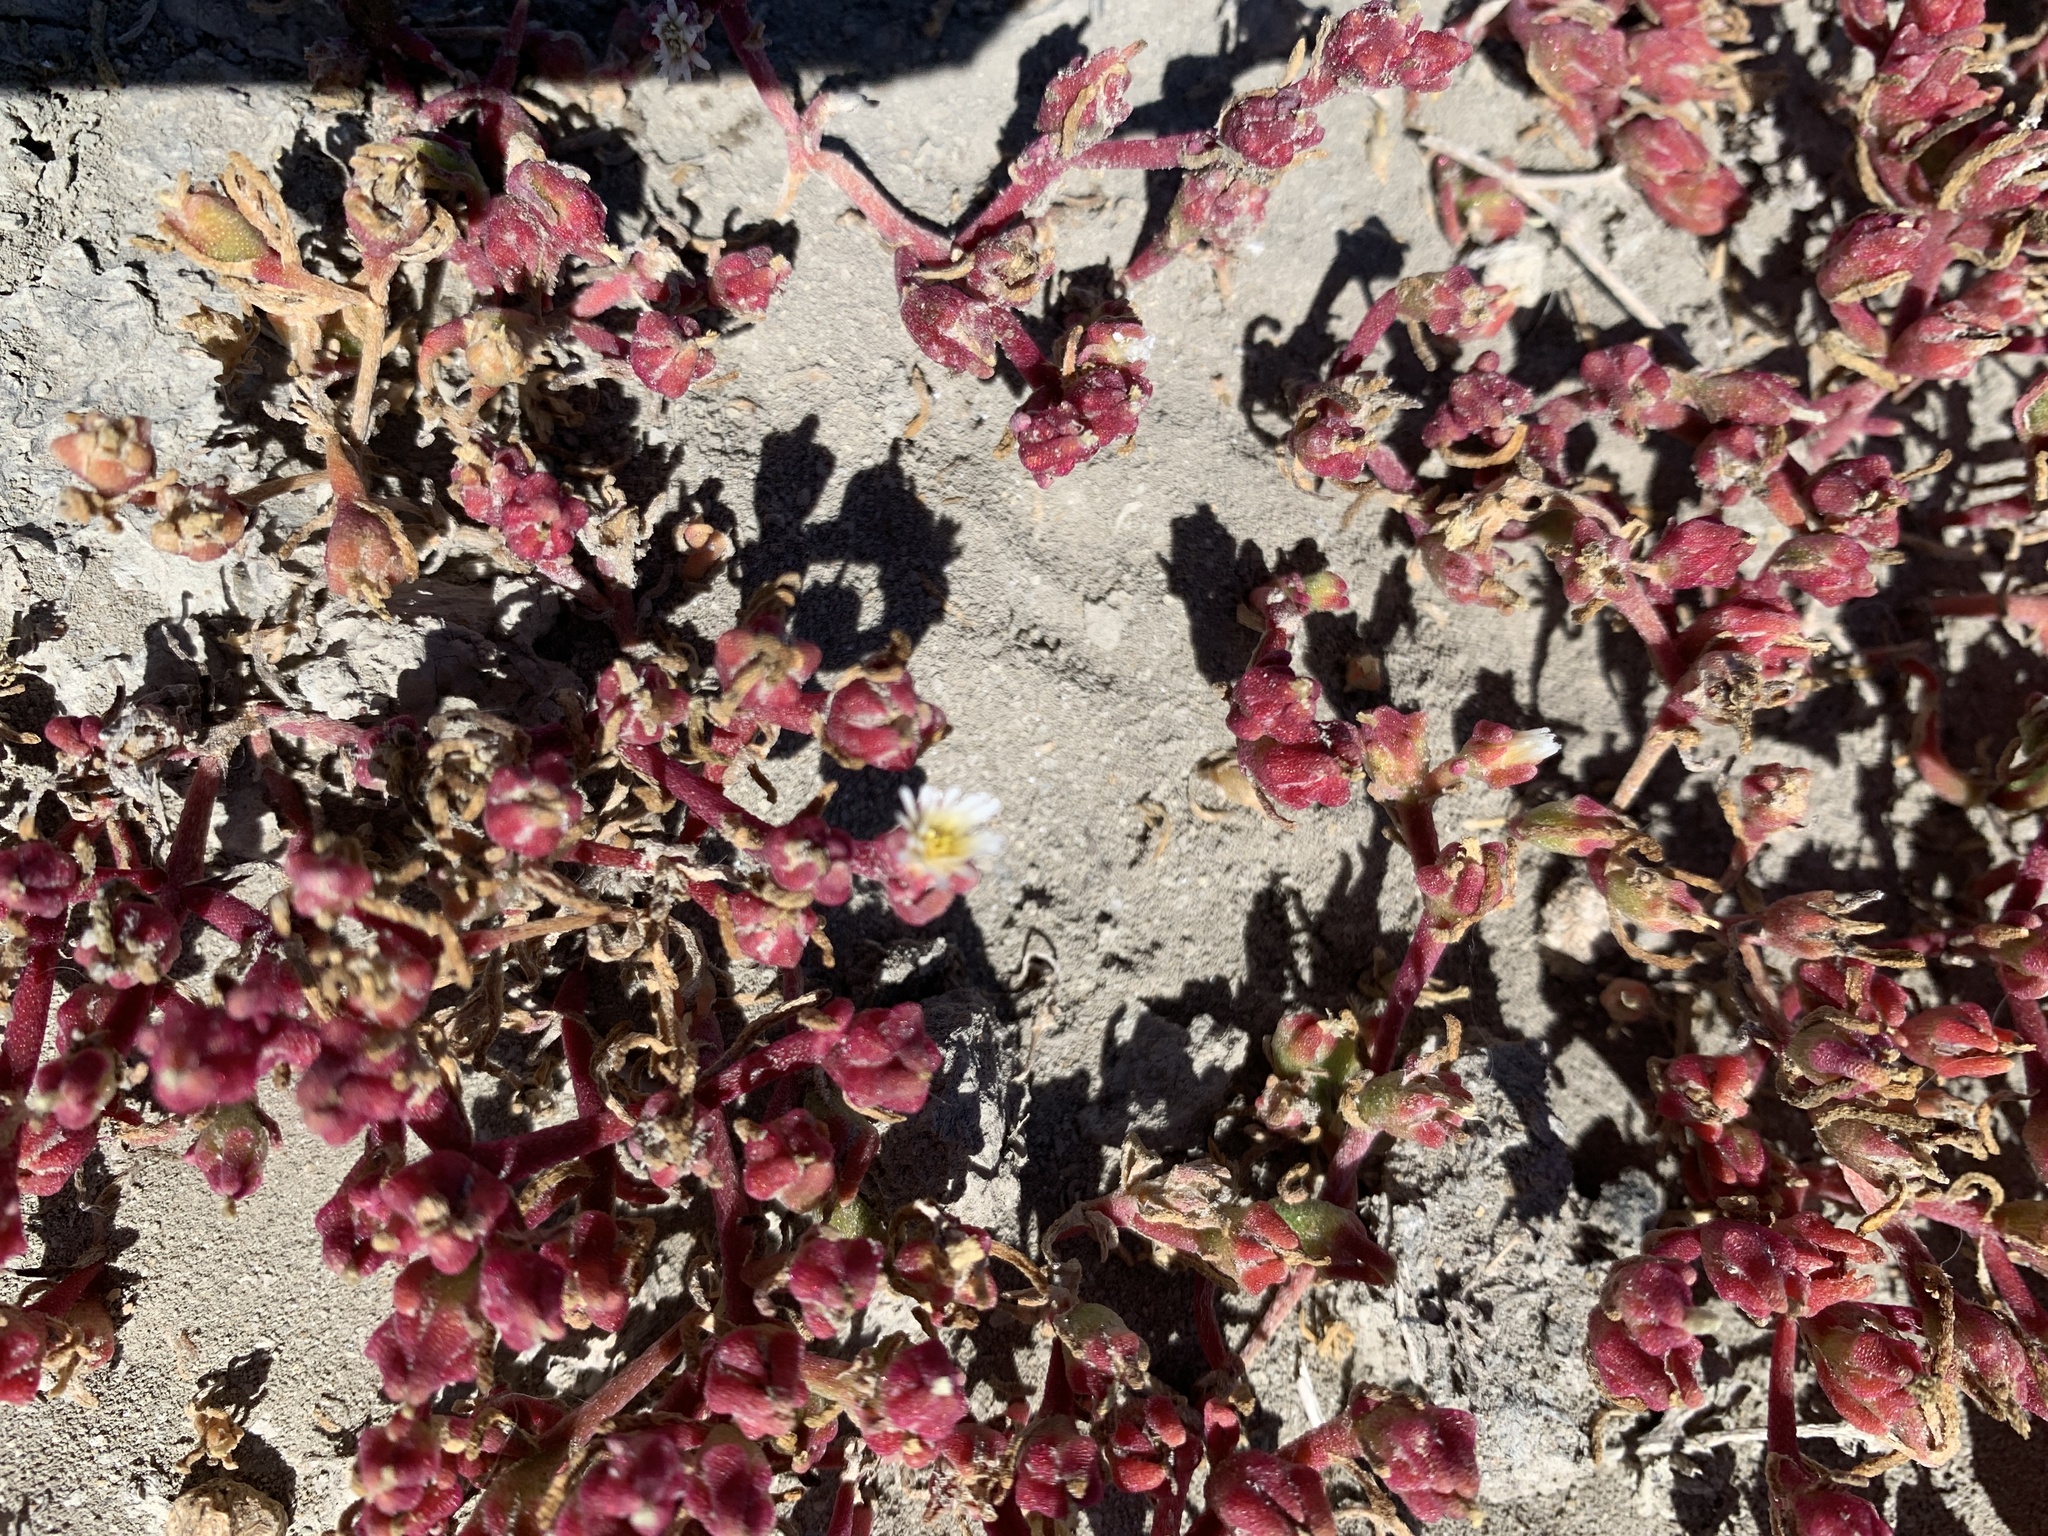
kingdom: Plantae
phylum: Tracheophyta
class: Magnoliopsida
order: Caryophyllales
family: Aizoaceae
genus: Mesembryanthemum
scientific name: Mesembryanthemum nodiflorum
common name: Slenderleaf iceplant
